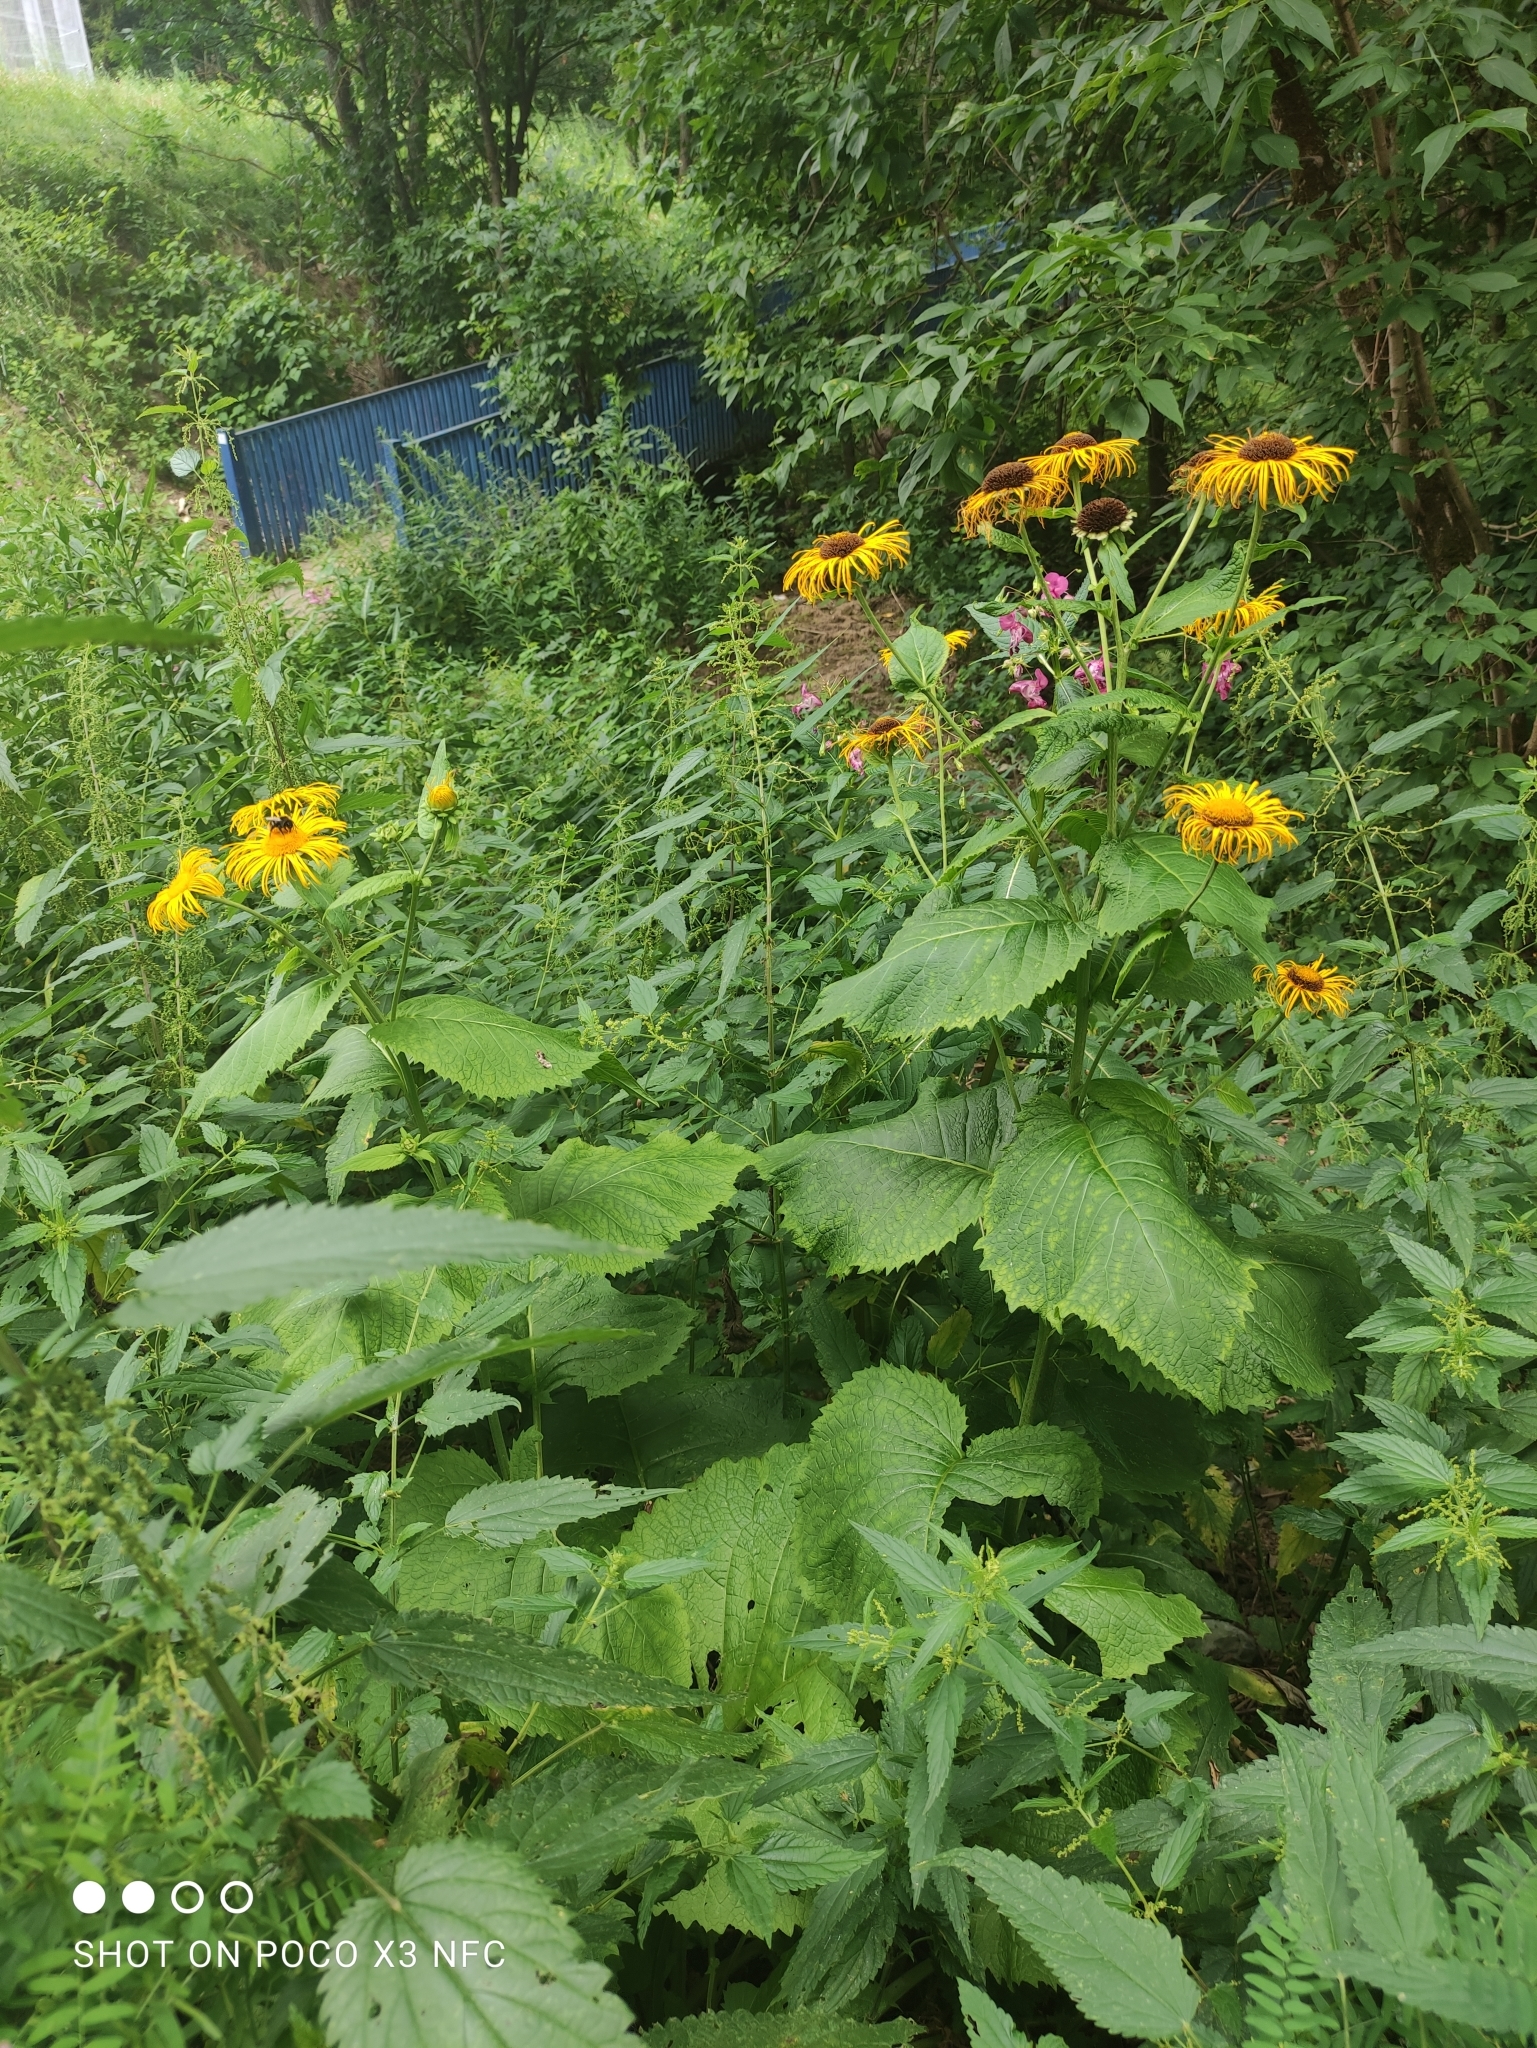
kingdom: Plantae
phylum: Tracheophyta
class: Magnoliopsida
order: Asterales
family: Asteraceae
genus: Telekia
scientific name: Telekia speciosa
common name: Yellow oxeye
